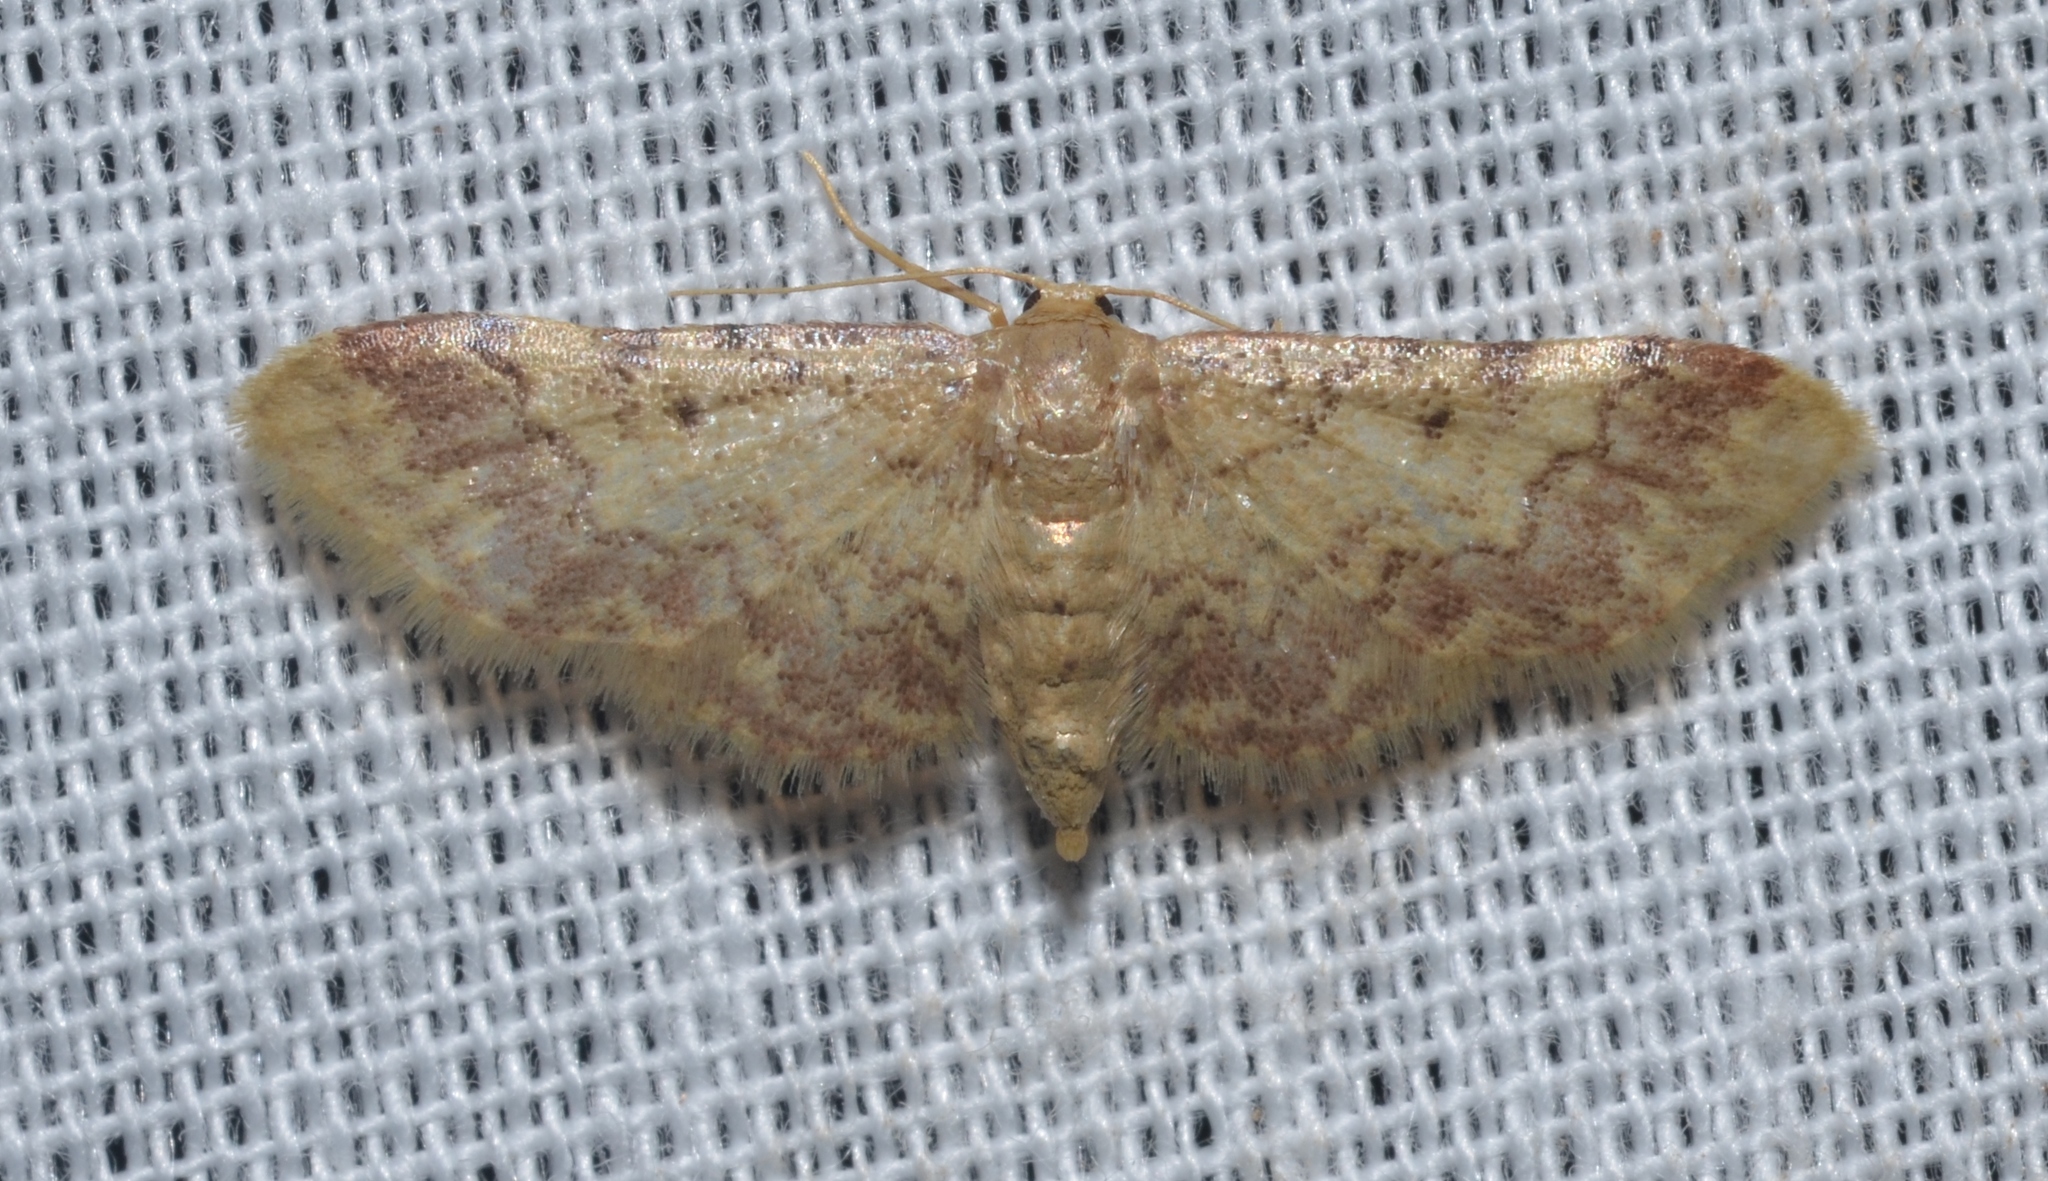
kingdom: Animalia
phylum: Arthropoda
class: Insecta
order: Lepidoptera
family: Geometridae
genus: Idaea
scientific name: Idaea furciferata
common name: Notch-winged wave
